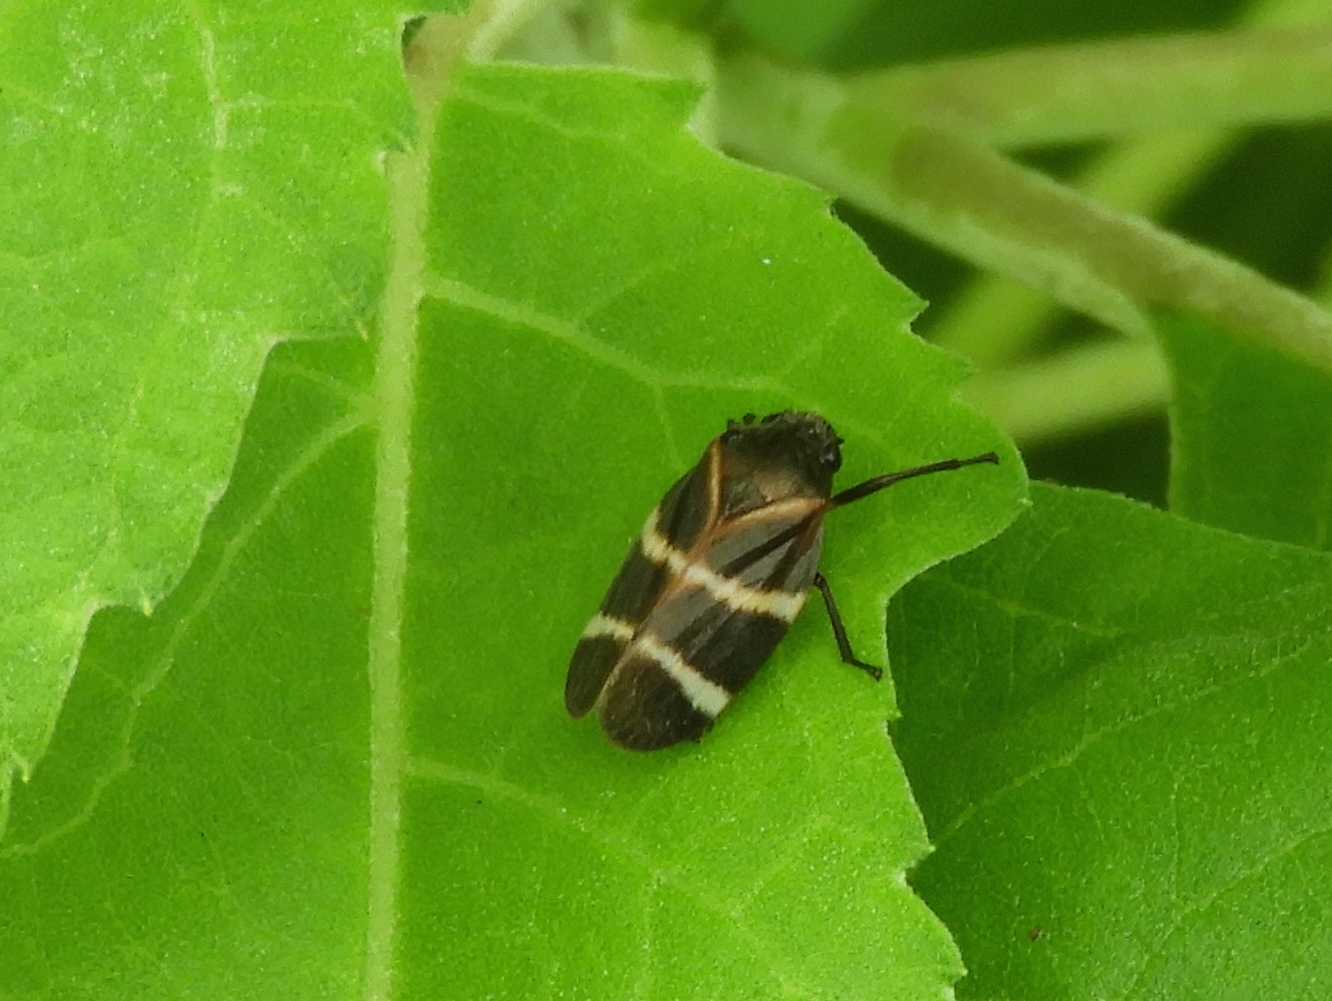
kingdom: Animalia
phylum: Arthropoda
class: Insecta
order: Hemiptera
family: Cercopidae
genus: Aeneolamia
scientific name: Aeneolamia albofasciata
